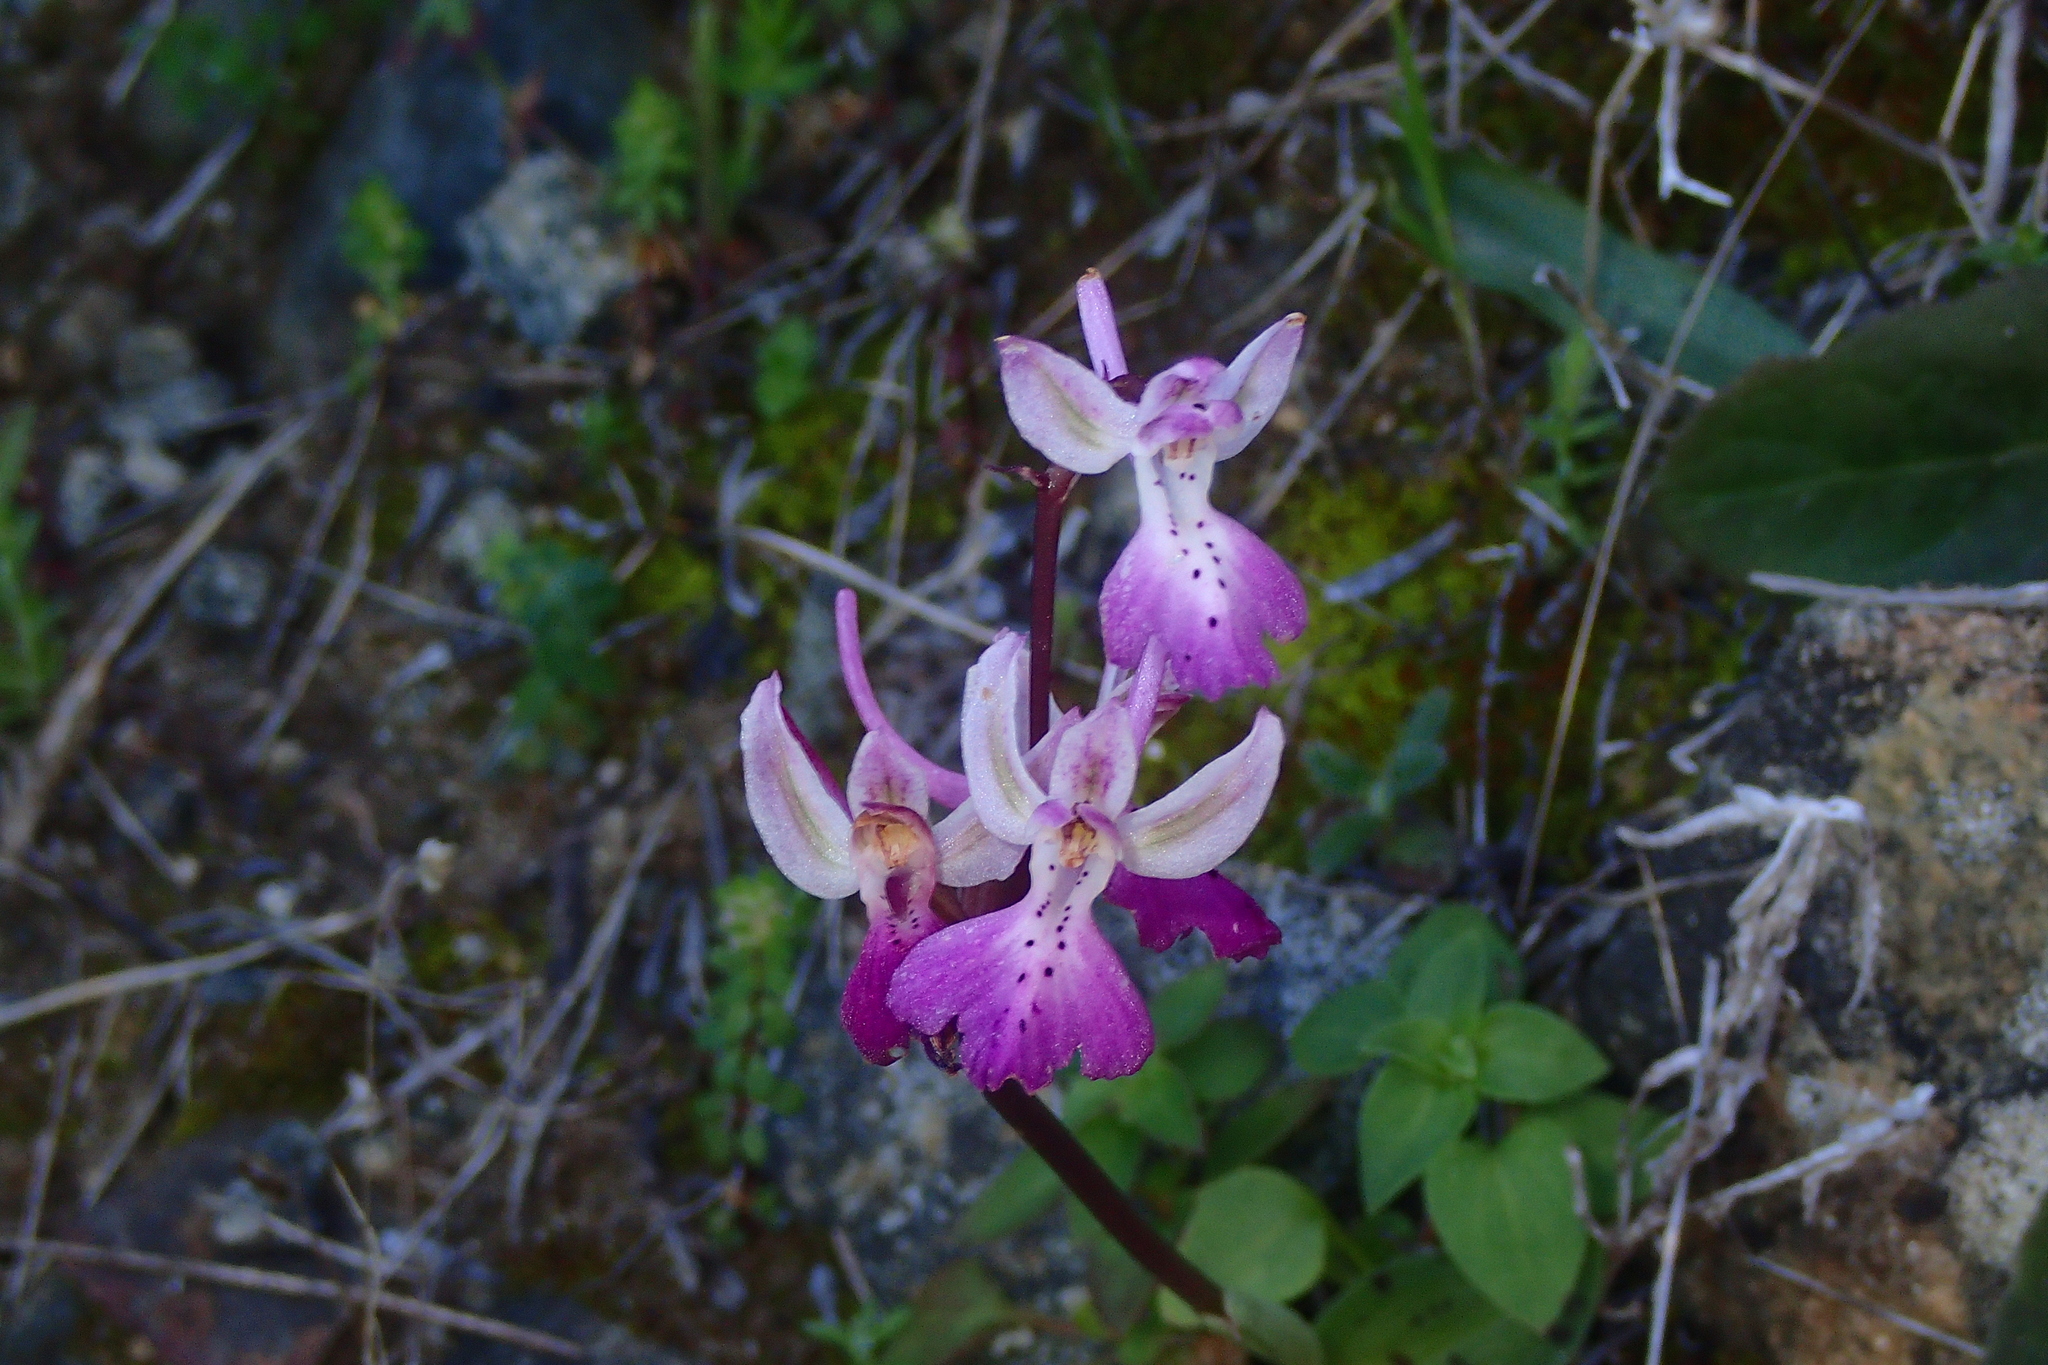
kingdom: Plantae
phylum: Tracheophyta
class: Liliopsida
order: Asparagales
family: Orchidaceae
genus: Orchis
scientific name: Orchis anatolica
